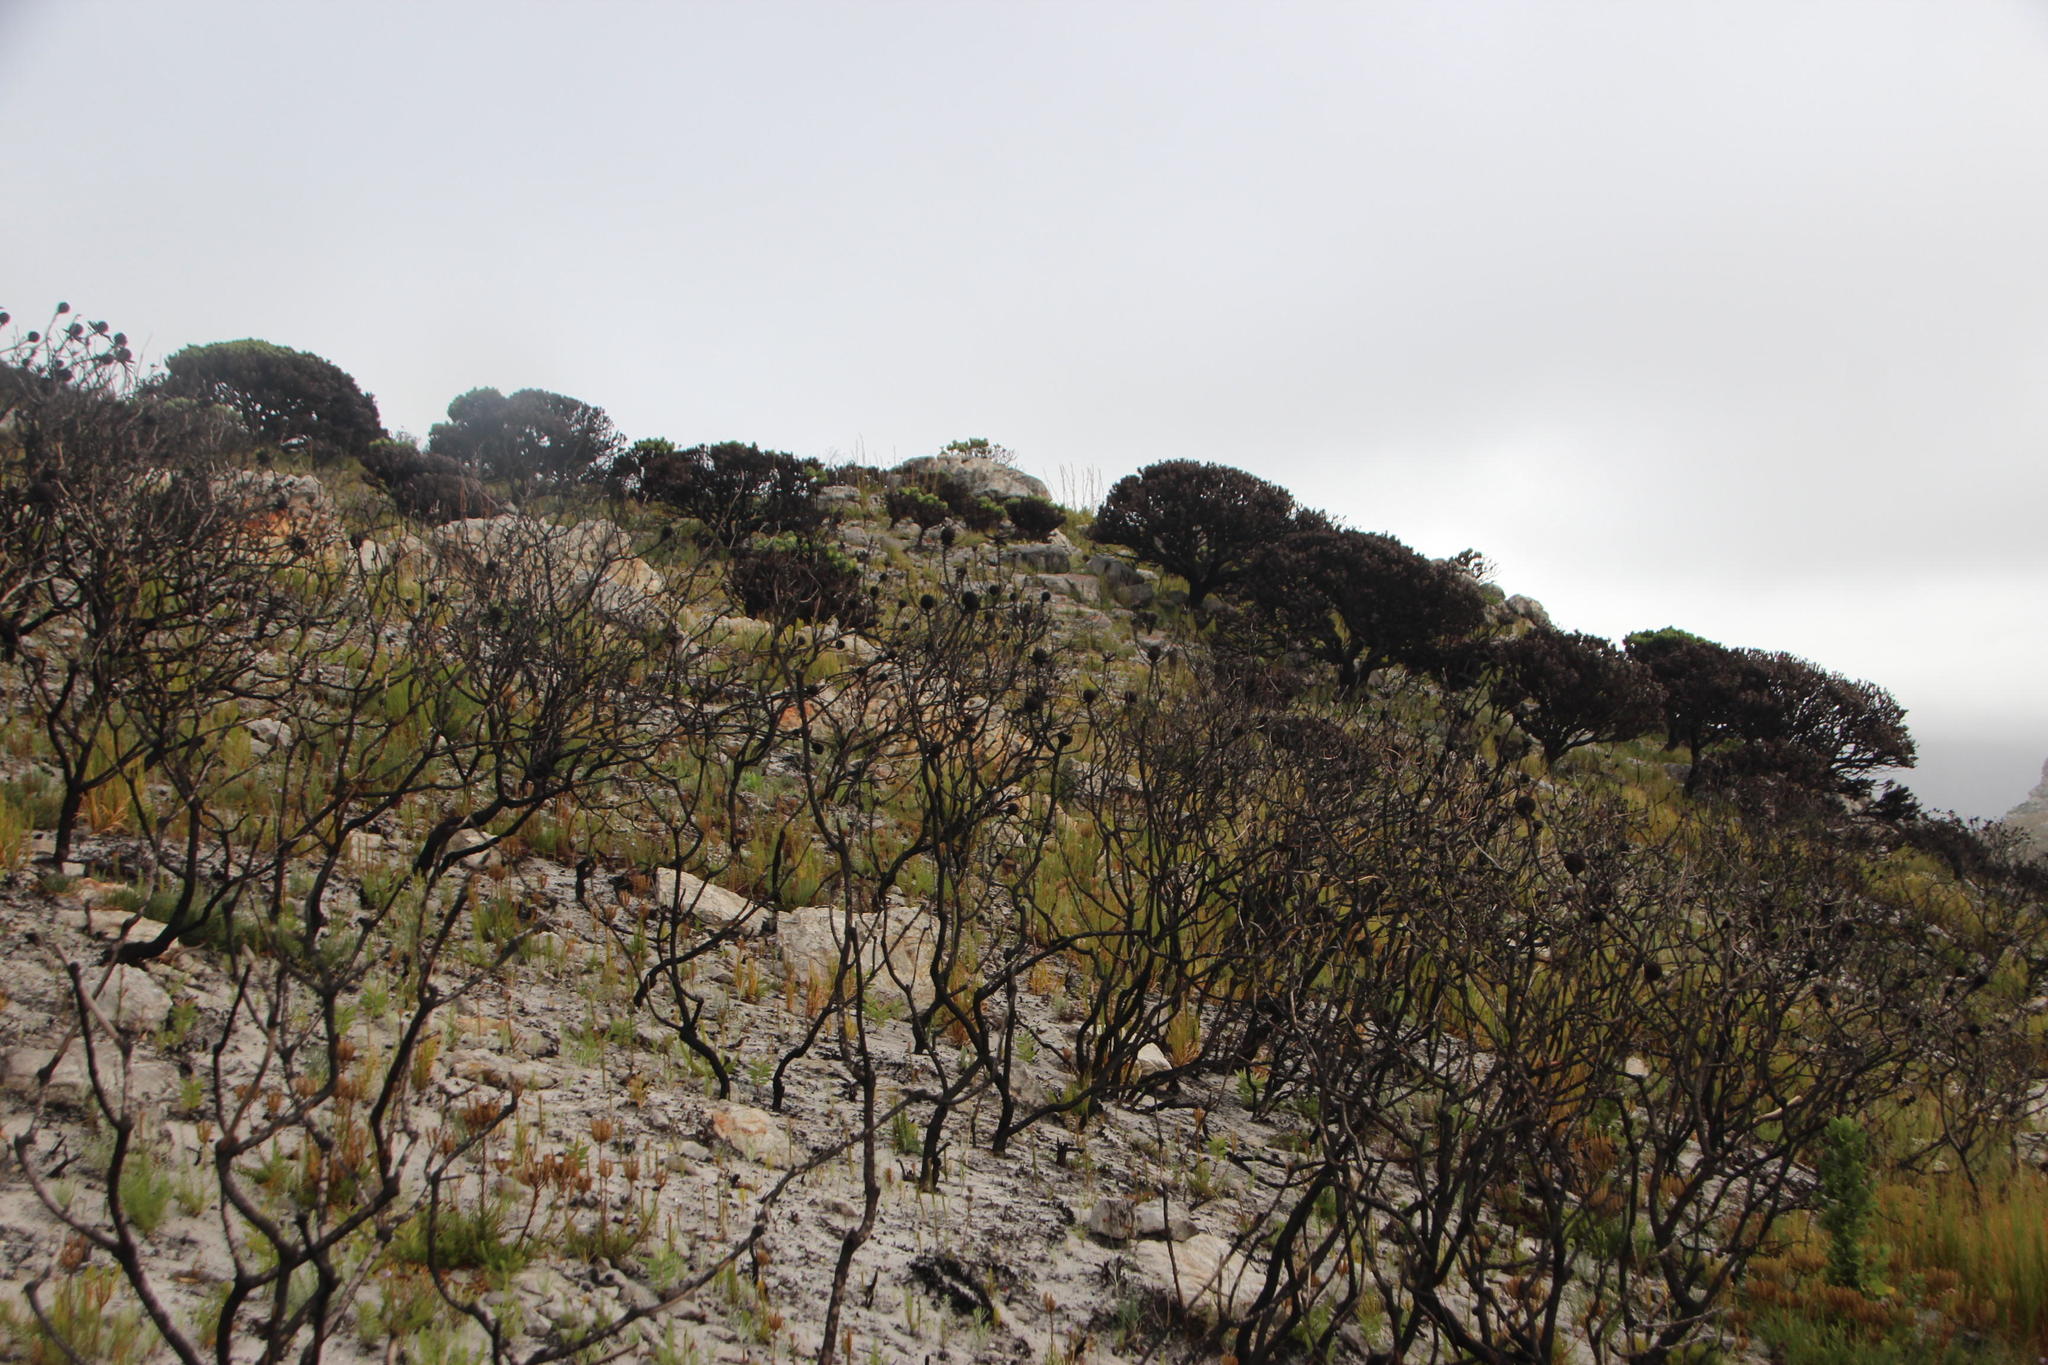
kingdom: Plantae
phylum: Tracheophyta
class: Magnoliopsida
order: Proteales
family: Proteaceae
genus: Leucadendron
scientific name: Leucadendron laureolum
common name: Golden sunshinebush
